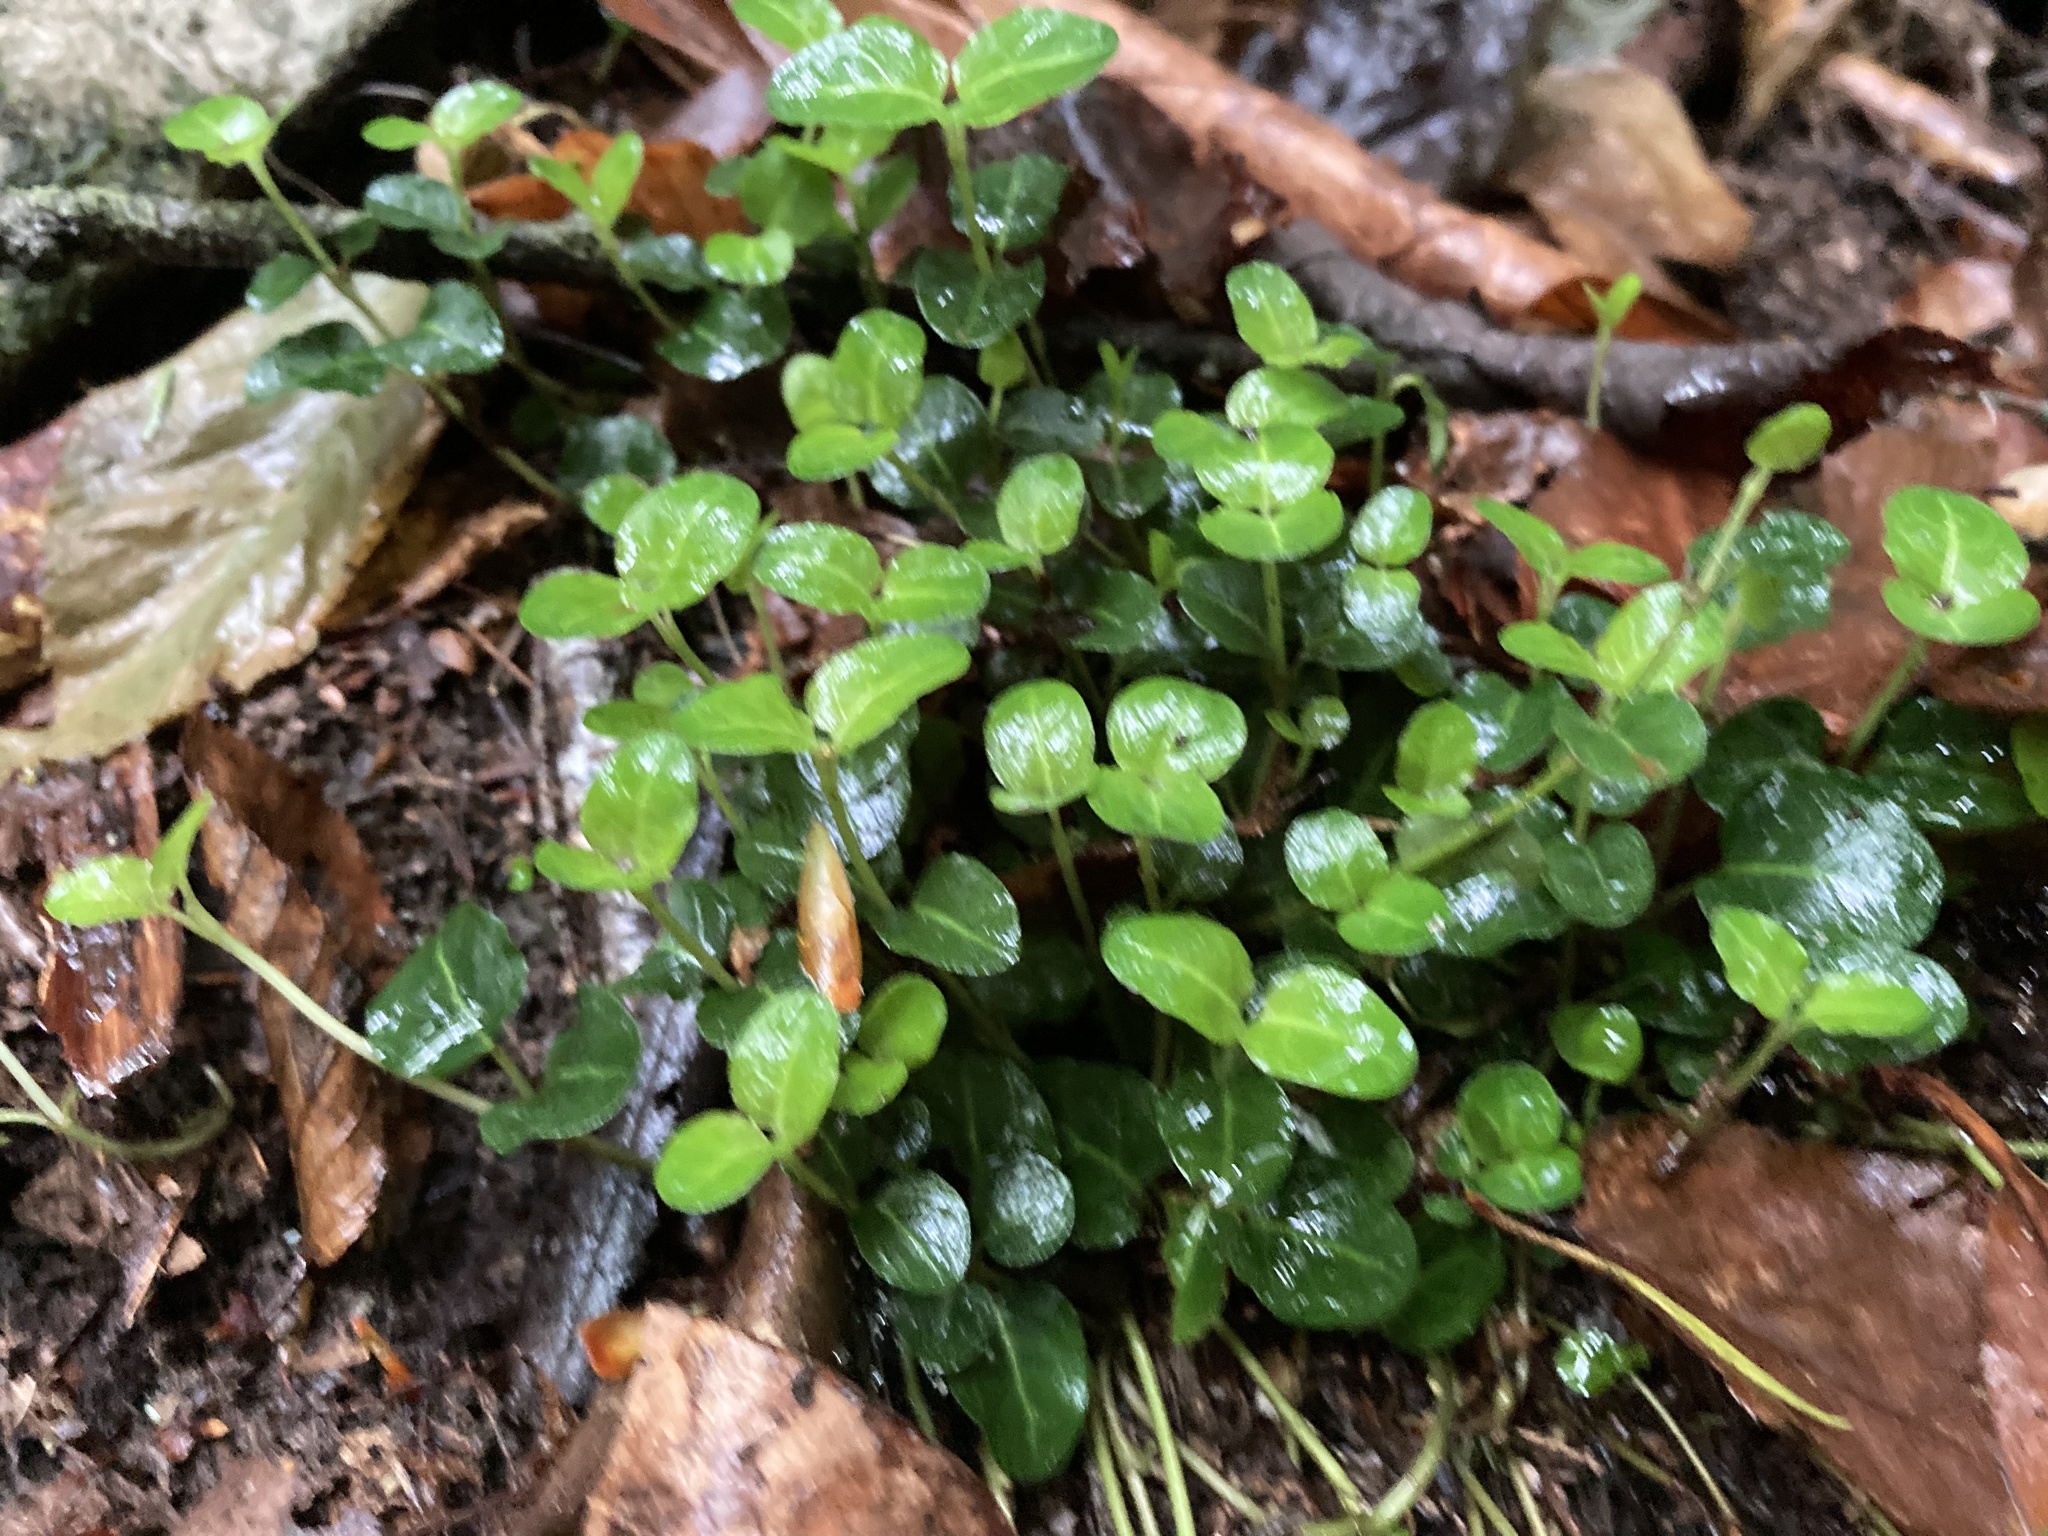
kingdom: Plantae
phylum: Tracheophyta
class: Magnoliopsida
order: Gentianales
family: Rubiaceae
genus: Mitchella
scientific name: Mitchella repens
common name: Partridge-berry
